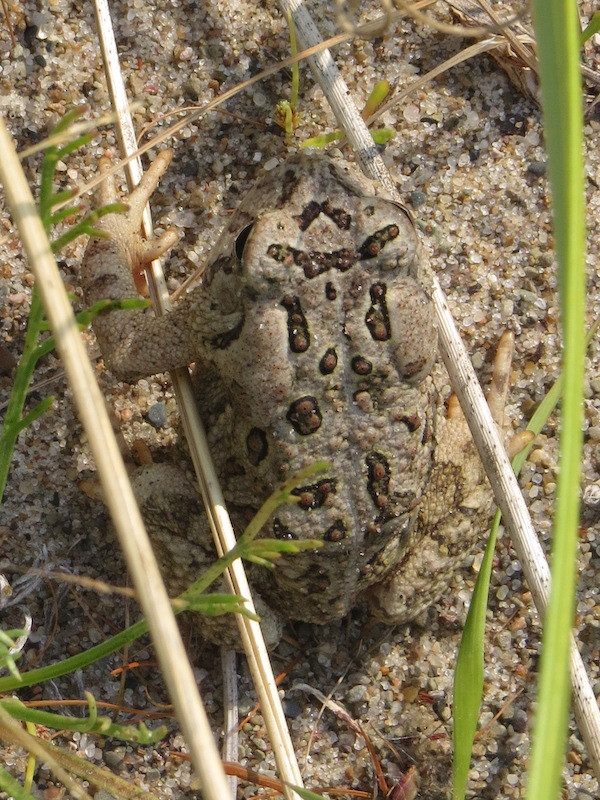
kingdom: Animalia
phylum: Chordata
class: Amphibia
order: Anura
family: Bufonidae
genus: Anaxyrus
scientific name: Anaxyrus fowleri
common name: Fowler's toad
